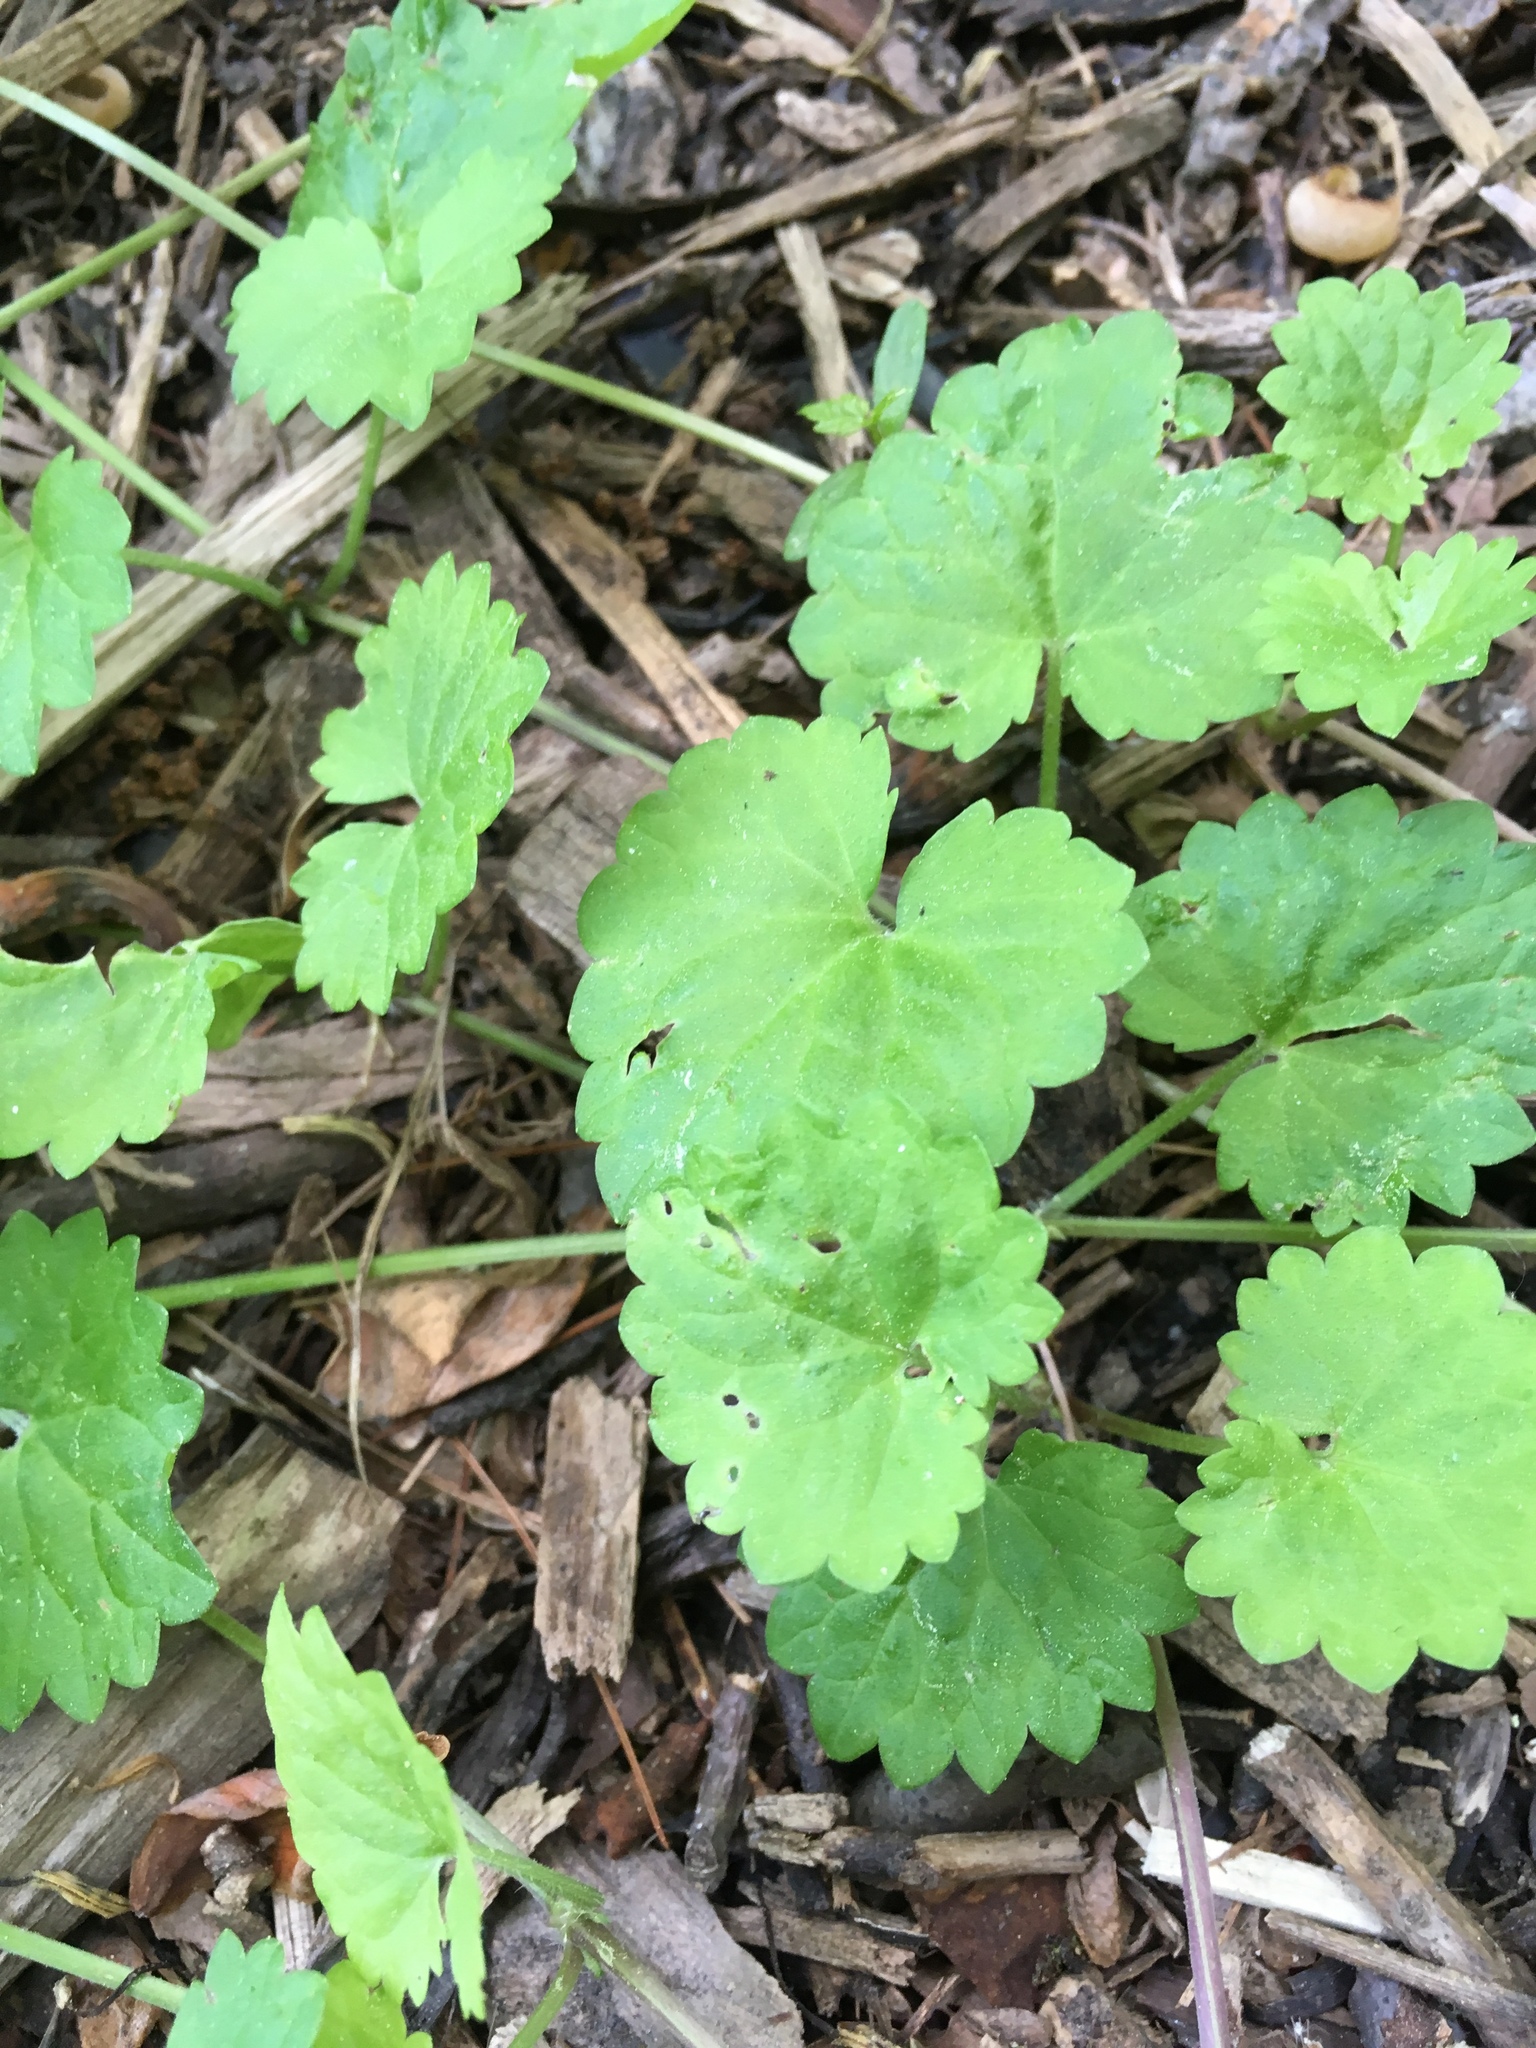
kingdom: Plantae
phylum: Tracheophyta
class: Magnoliopsida
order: Lamiales
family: Lamiaceae
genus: Glechoma
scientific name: Glechoma hederacea
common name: Ground ivy
